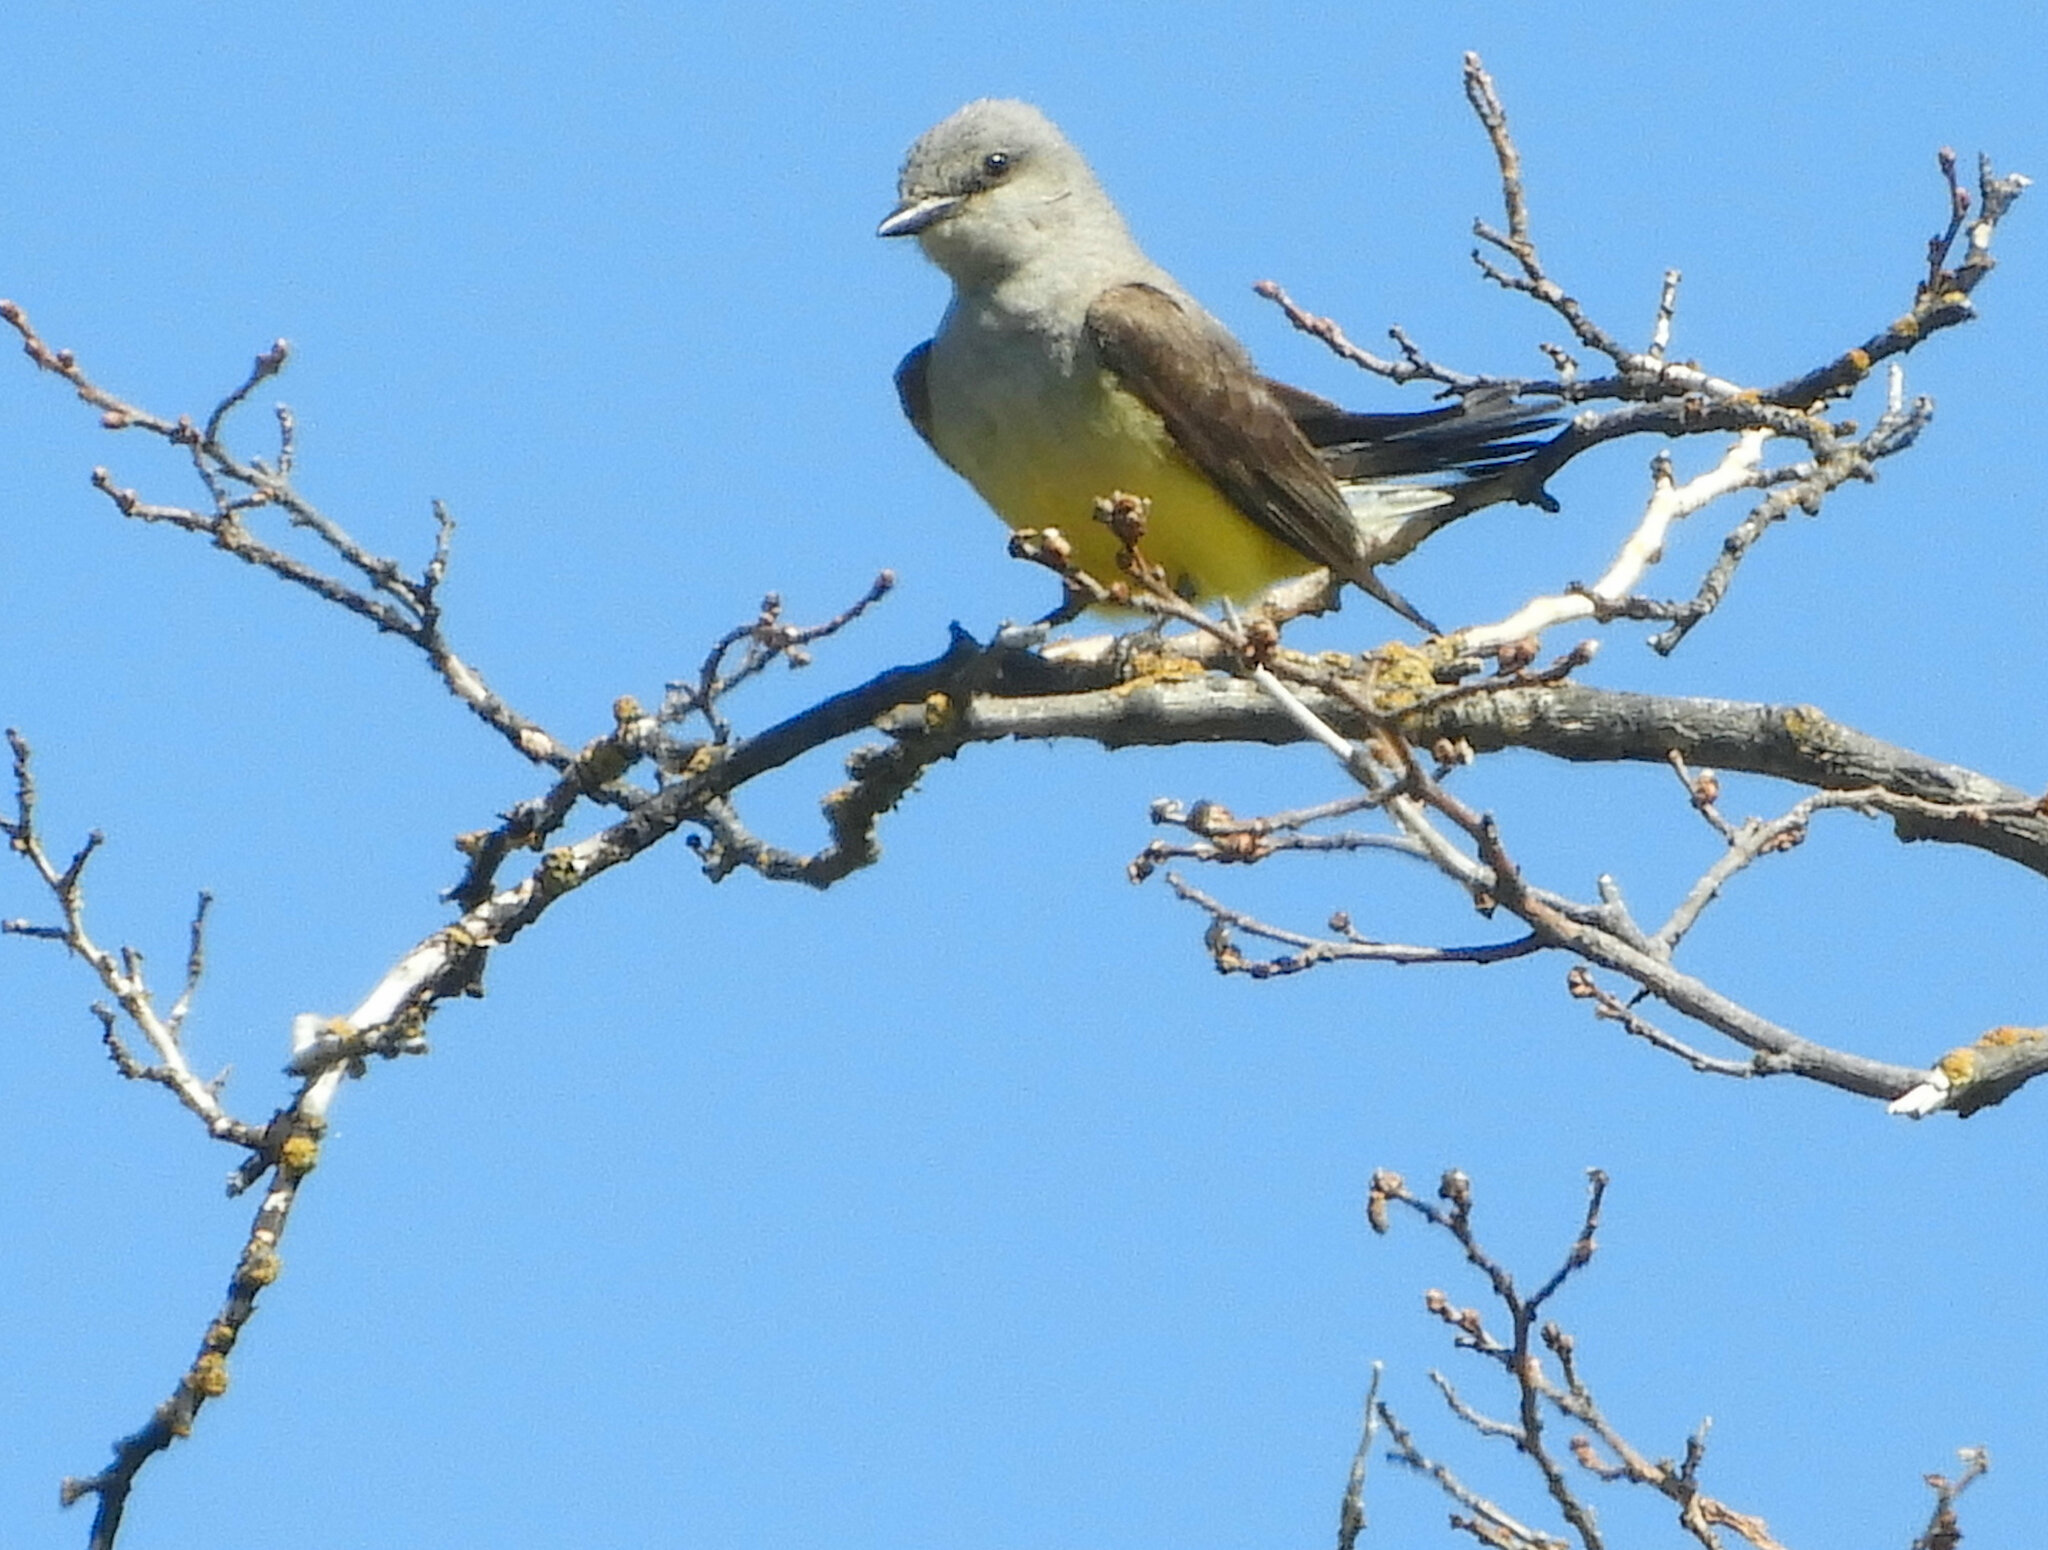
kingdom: Animalia
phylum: Chordata
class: Aves
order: Passeriformes
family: Tyrannidae
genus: Tyrannus
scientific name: Tyrannus verticalis
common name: Western kingbird
